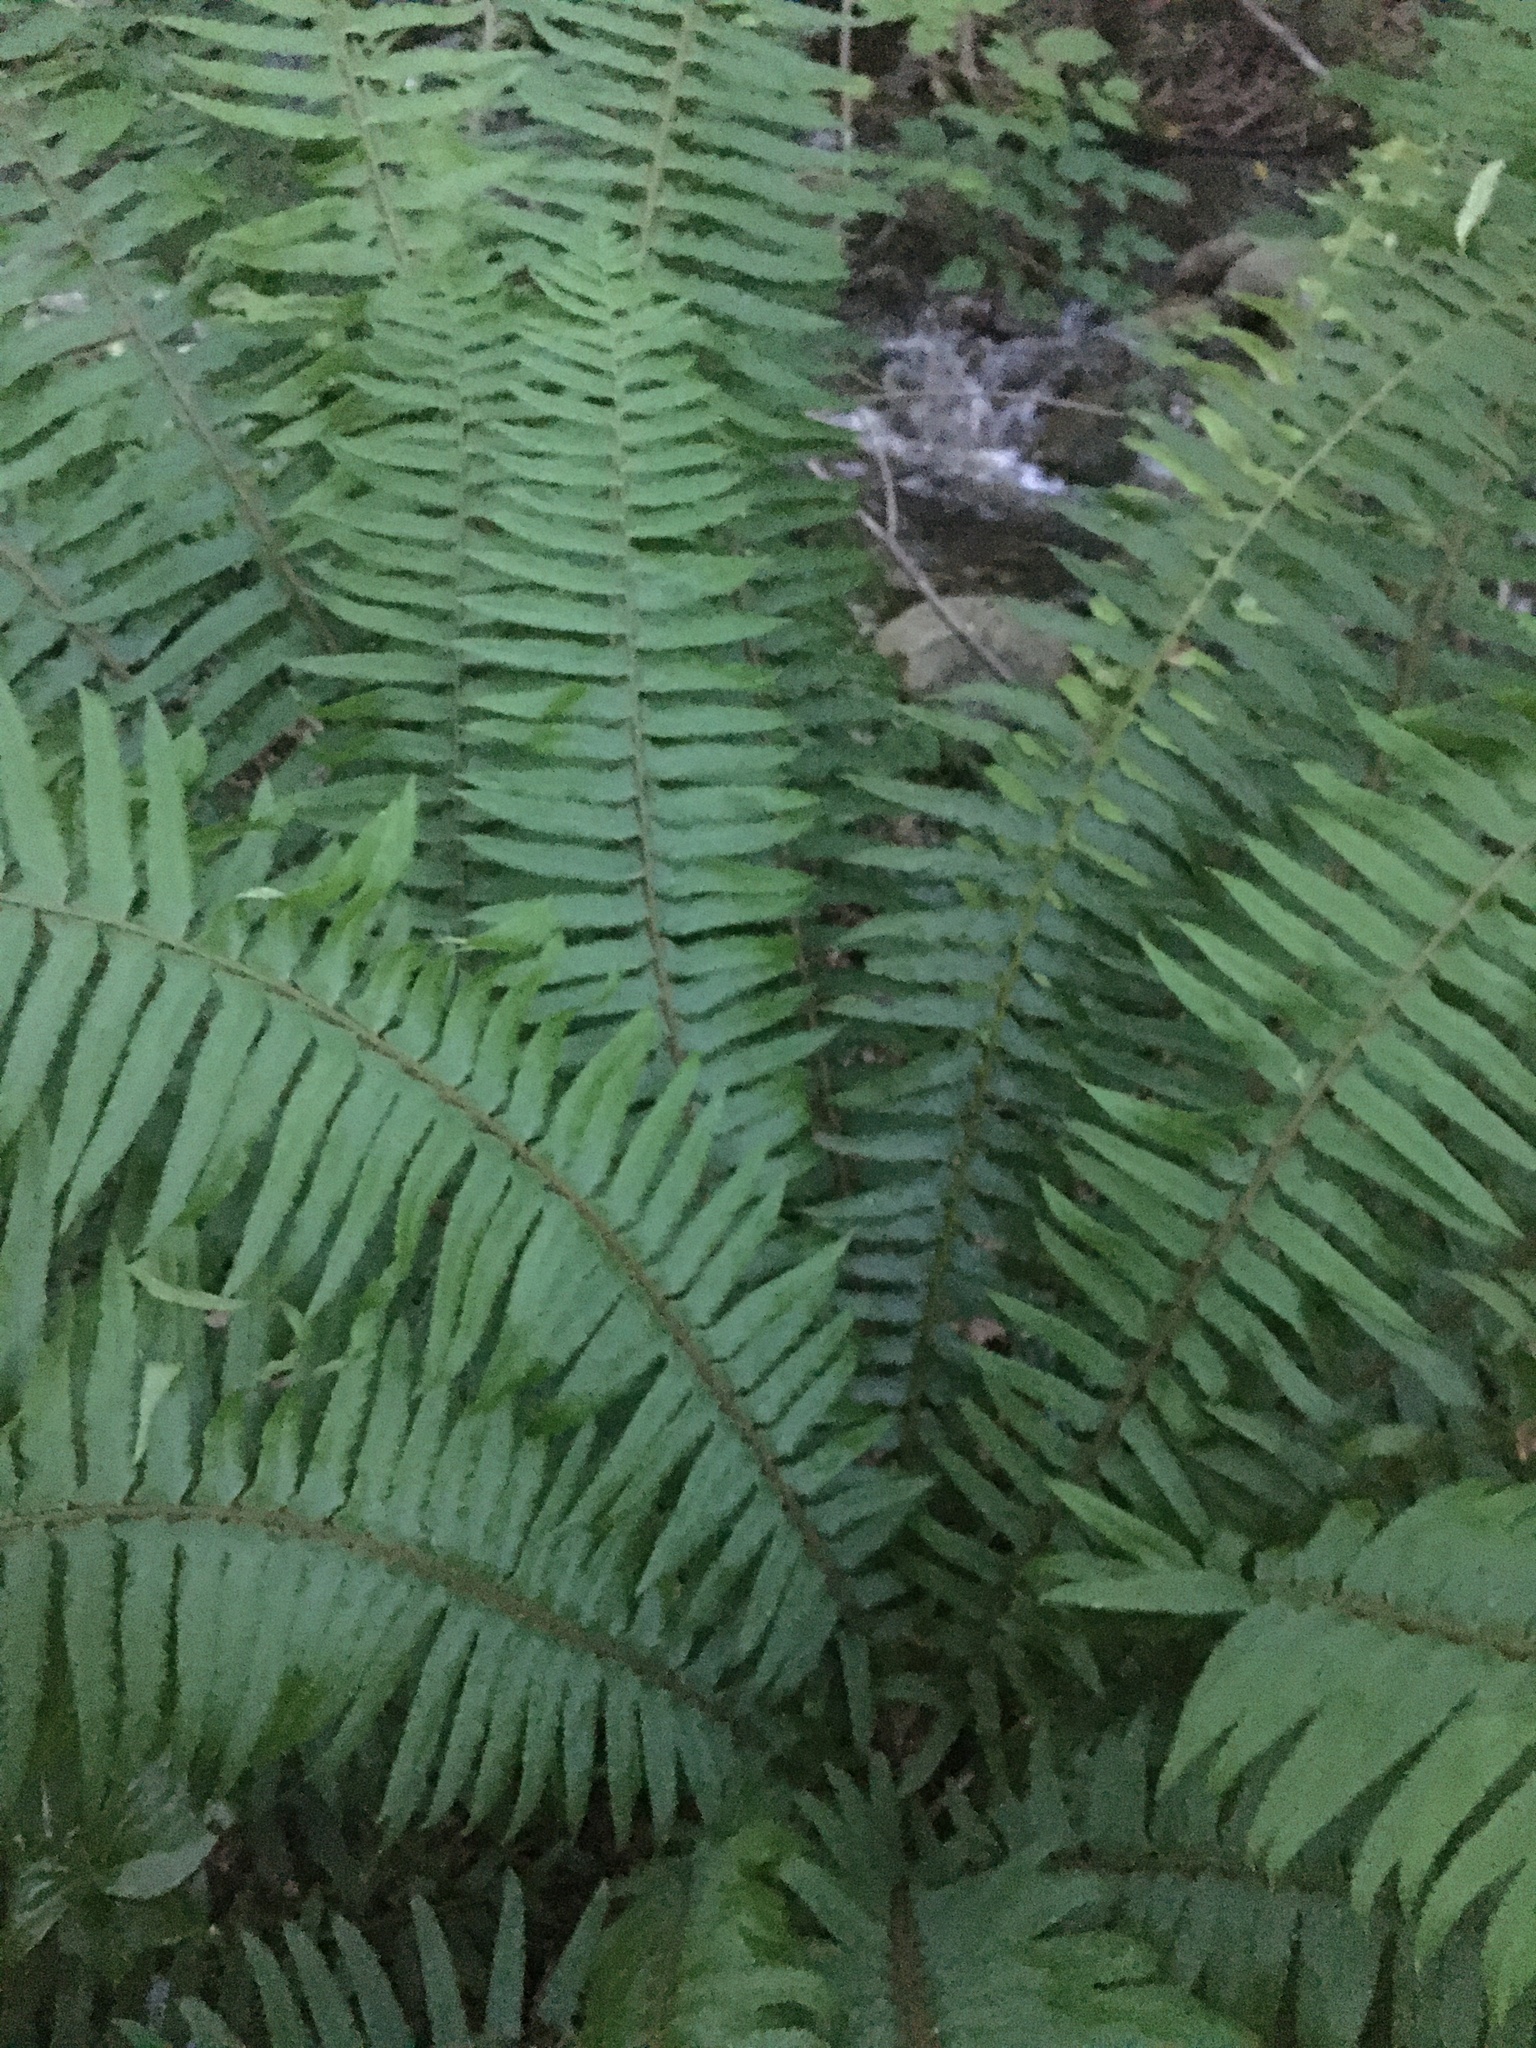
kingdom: Plantae
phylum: Tracheophyta
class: Polypodiopsida
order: Polypodiales
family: Dryopteridaceae
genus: Polystichum
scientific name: Polystichum munitum
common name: Western sword-fern
